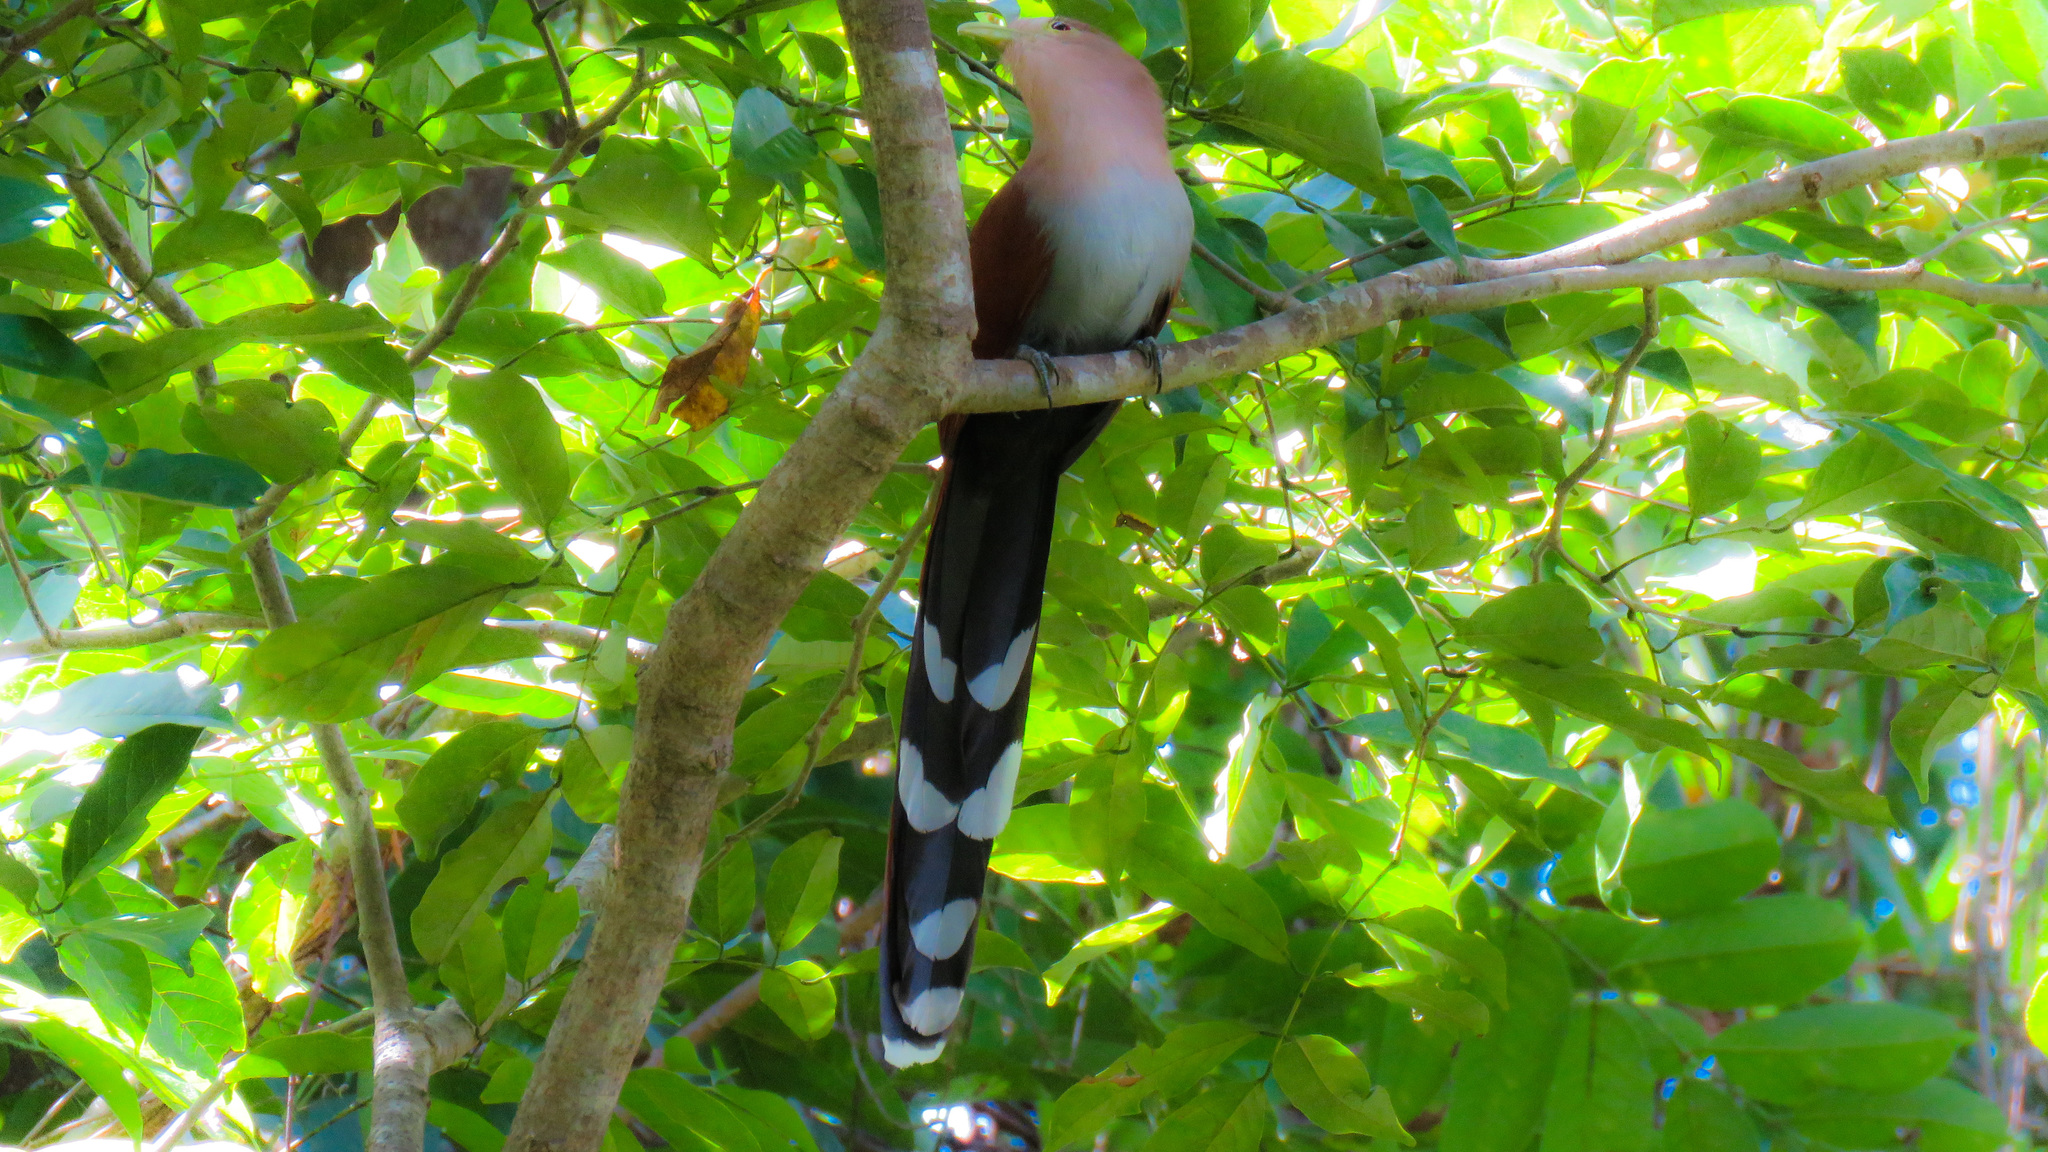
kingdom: Animalia
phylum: Chordata
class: Aves
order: Cuculiformes
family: Cuculidae
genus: Piaya
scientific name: Piaya cayana
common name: Squirrel cuckoo
